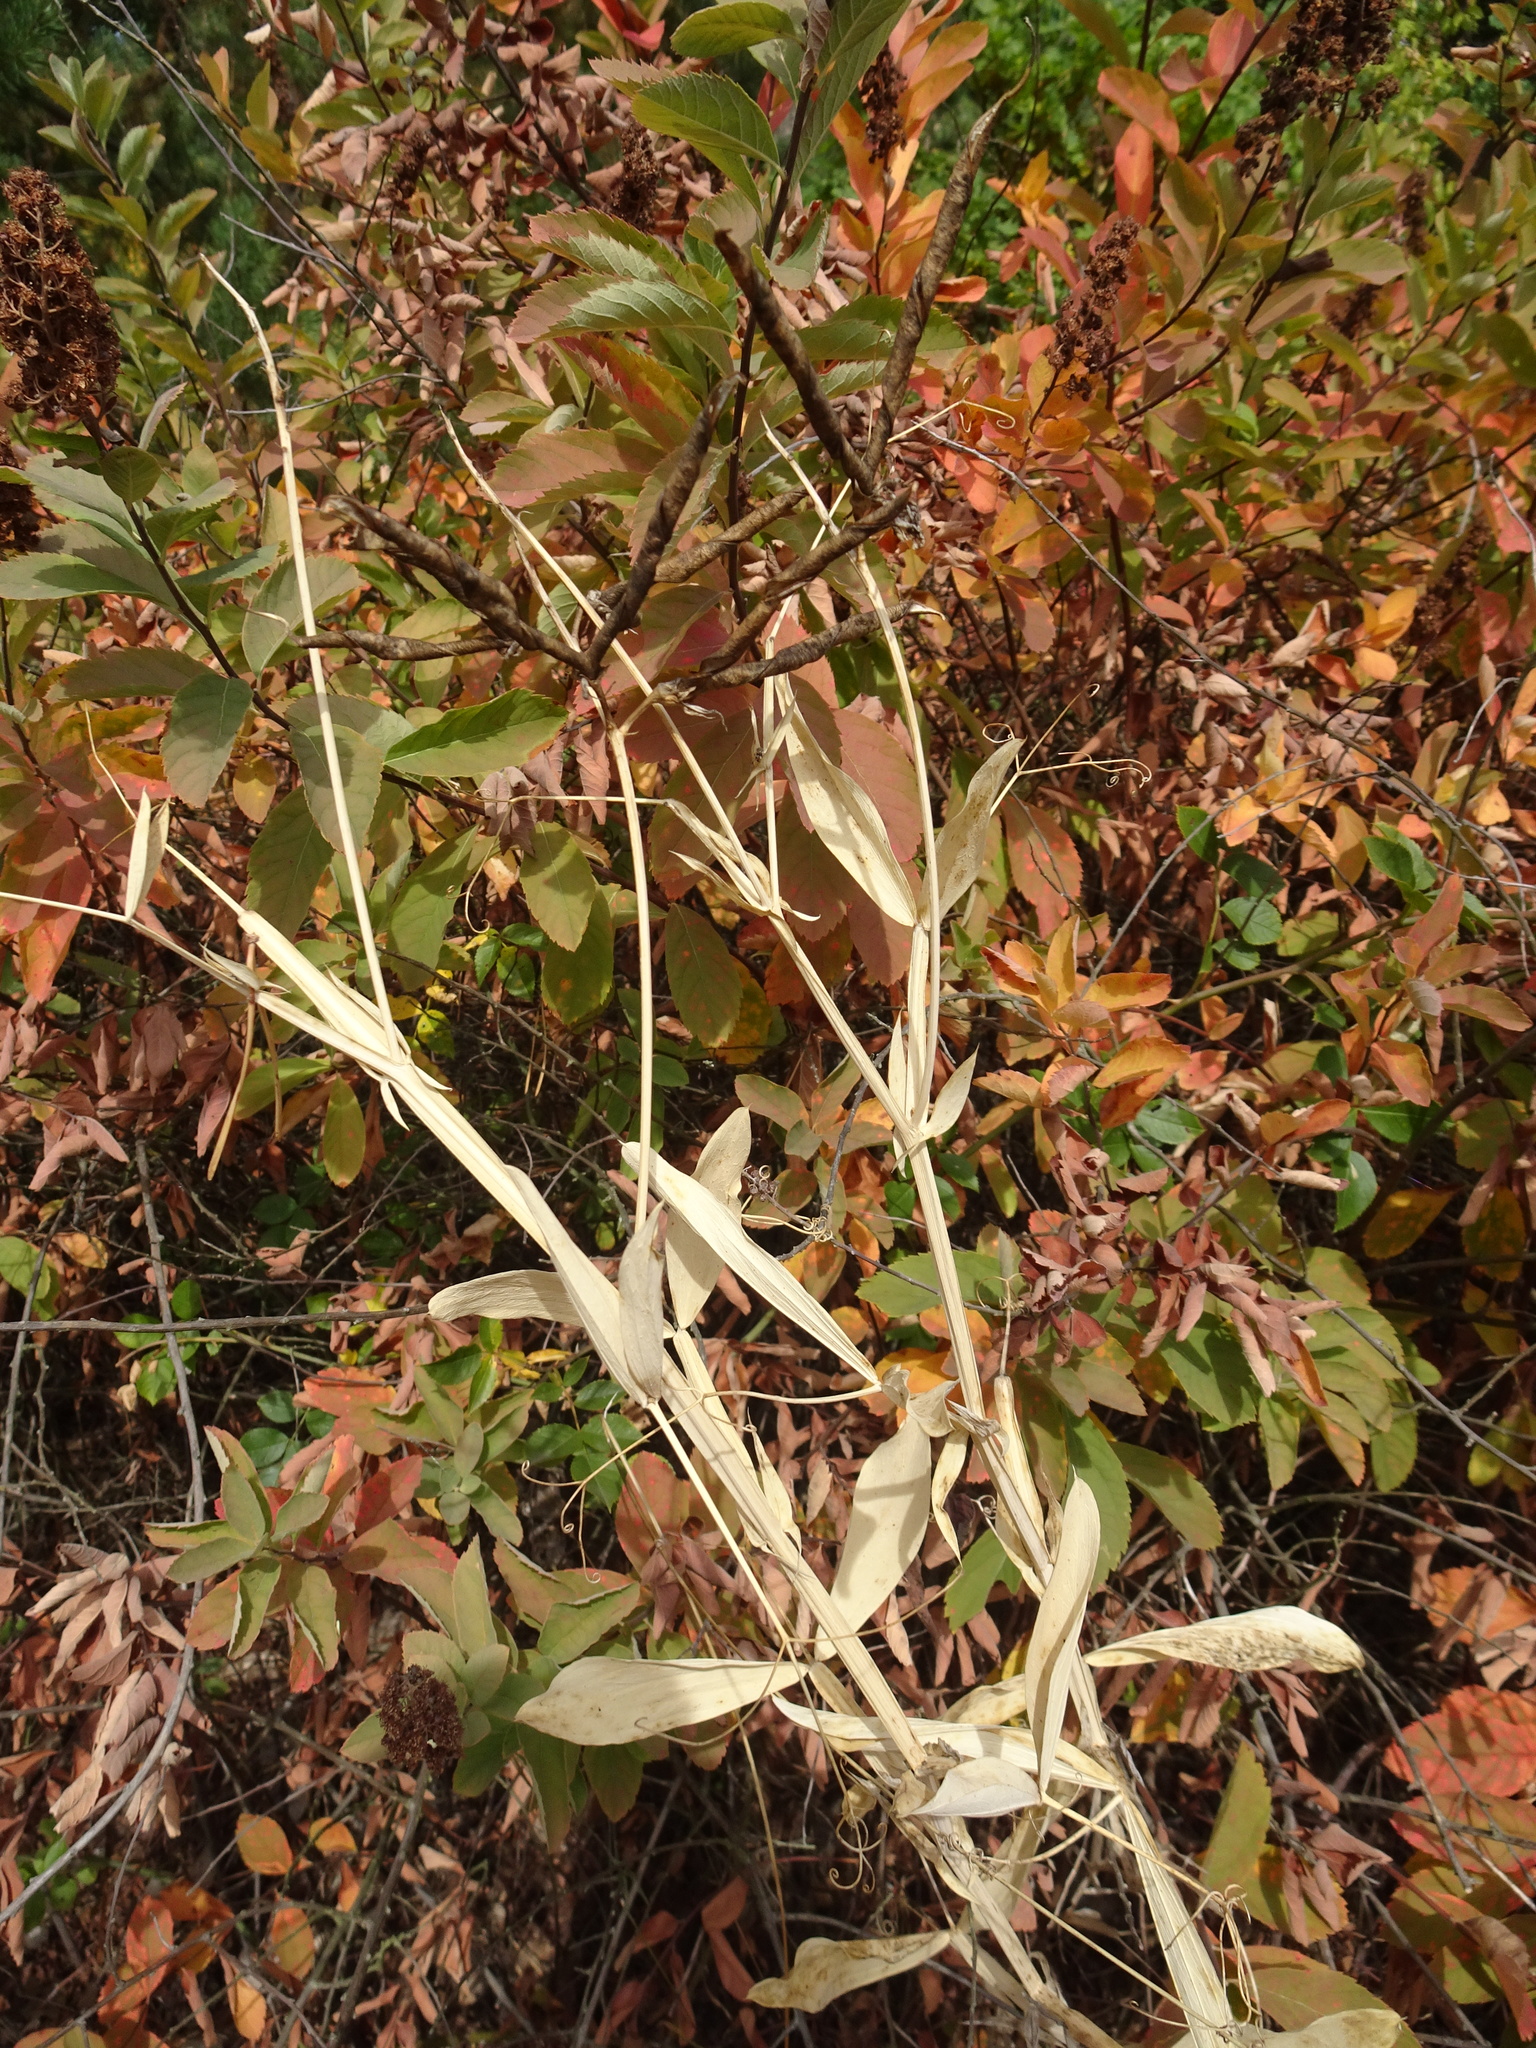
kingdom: Plantae
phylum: Tracheophyta
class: Magnoliopsida
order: Fabales
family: Fabaceae
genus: Lathyrus
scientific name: Lathyrus latifolius
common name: Perennial pea
